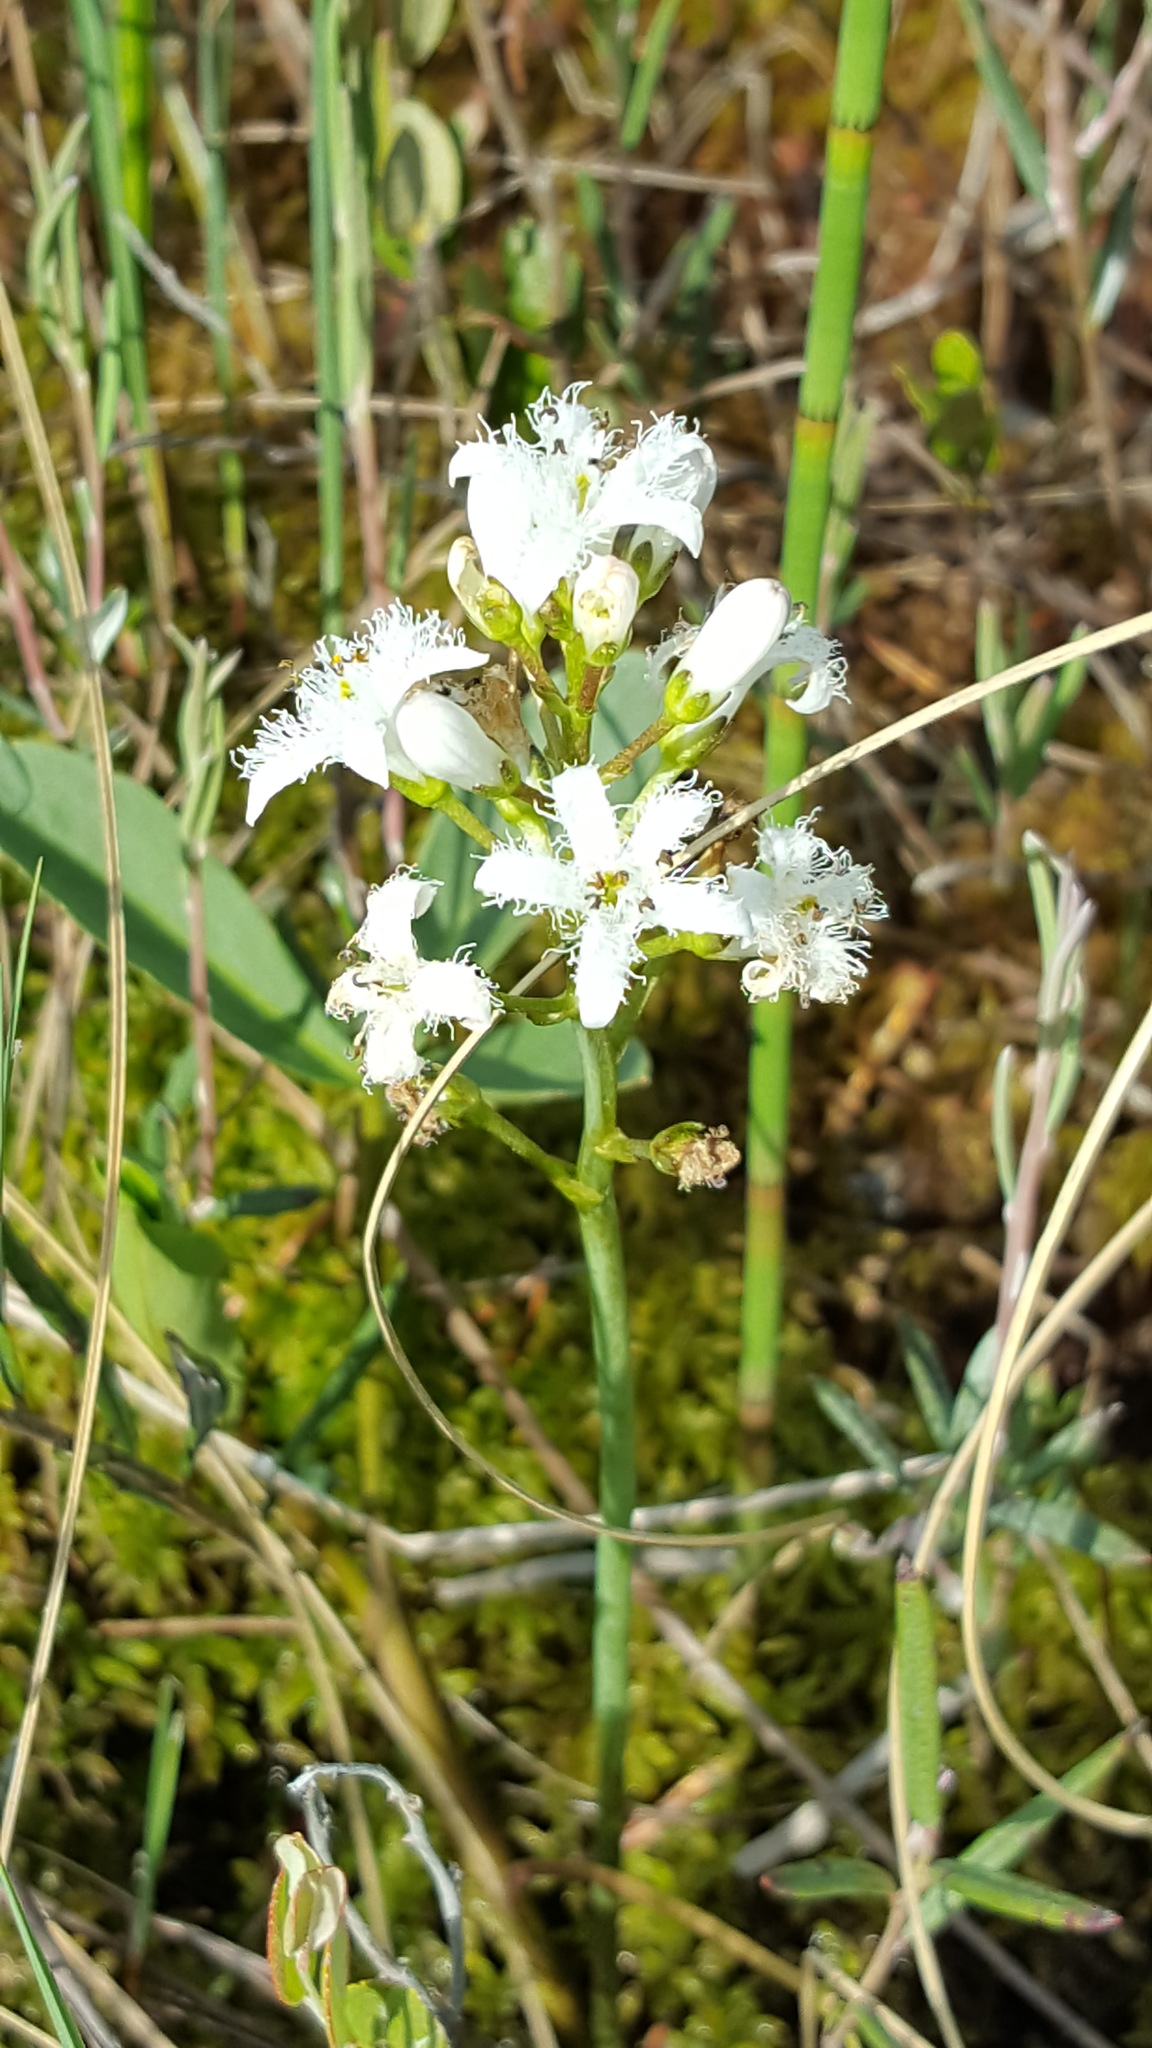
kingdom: Plantae
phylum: Tracheophyta
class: Magnoliopsida
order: Asterales
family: Menyanthaceae
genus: Menyanthes
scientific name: Menyanthes trifoliata
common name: Bogbean
